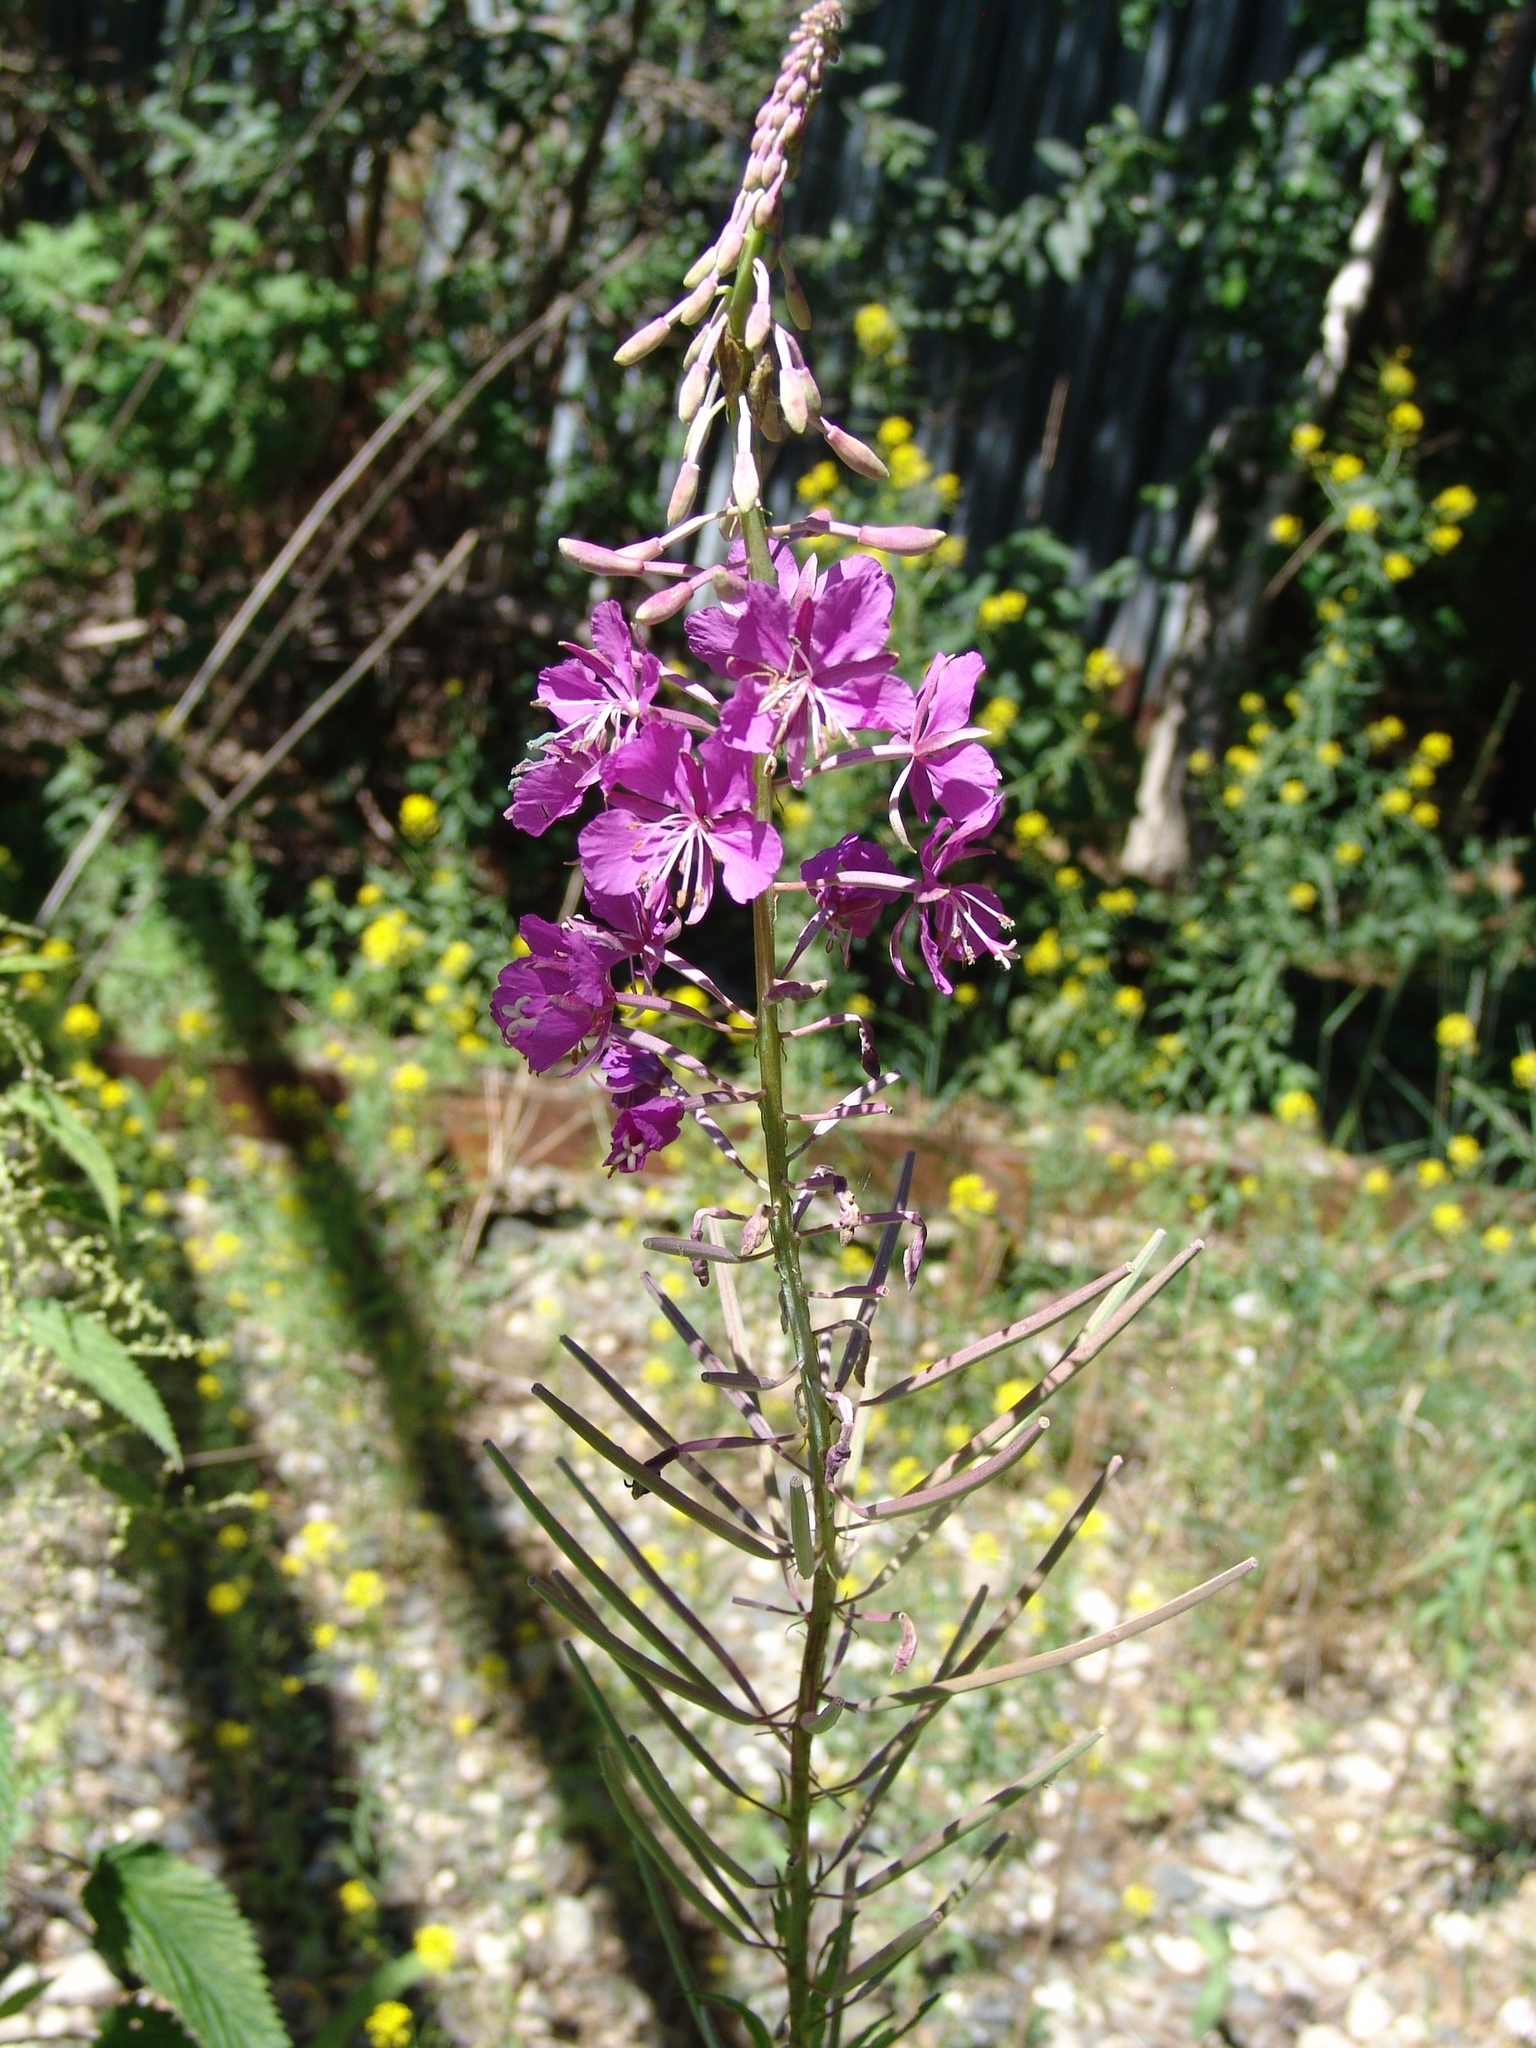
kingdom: Plantae
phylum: Tracheophyta
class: Magnoliopsida
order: Myrtales
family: Onagraceae
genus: Chamaenerion
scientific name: Chamaenerion angustifolium
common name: Fireweed
